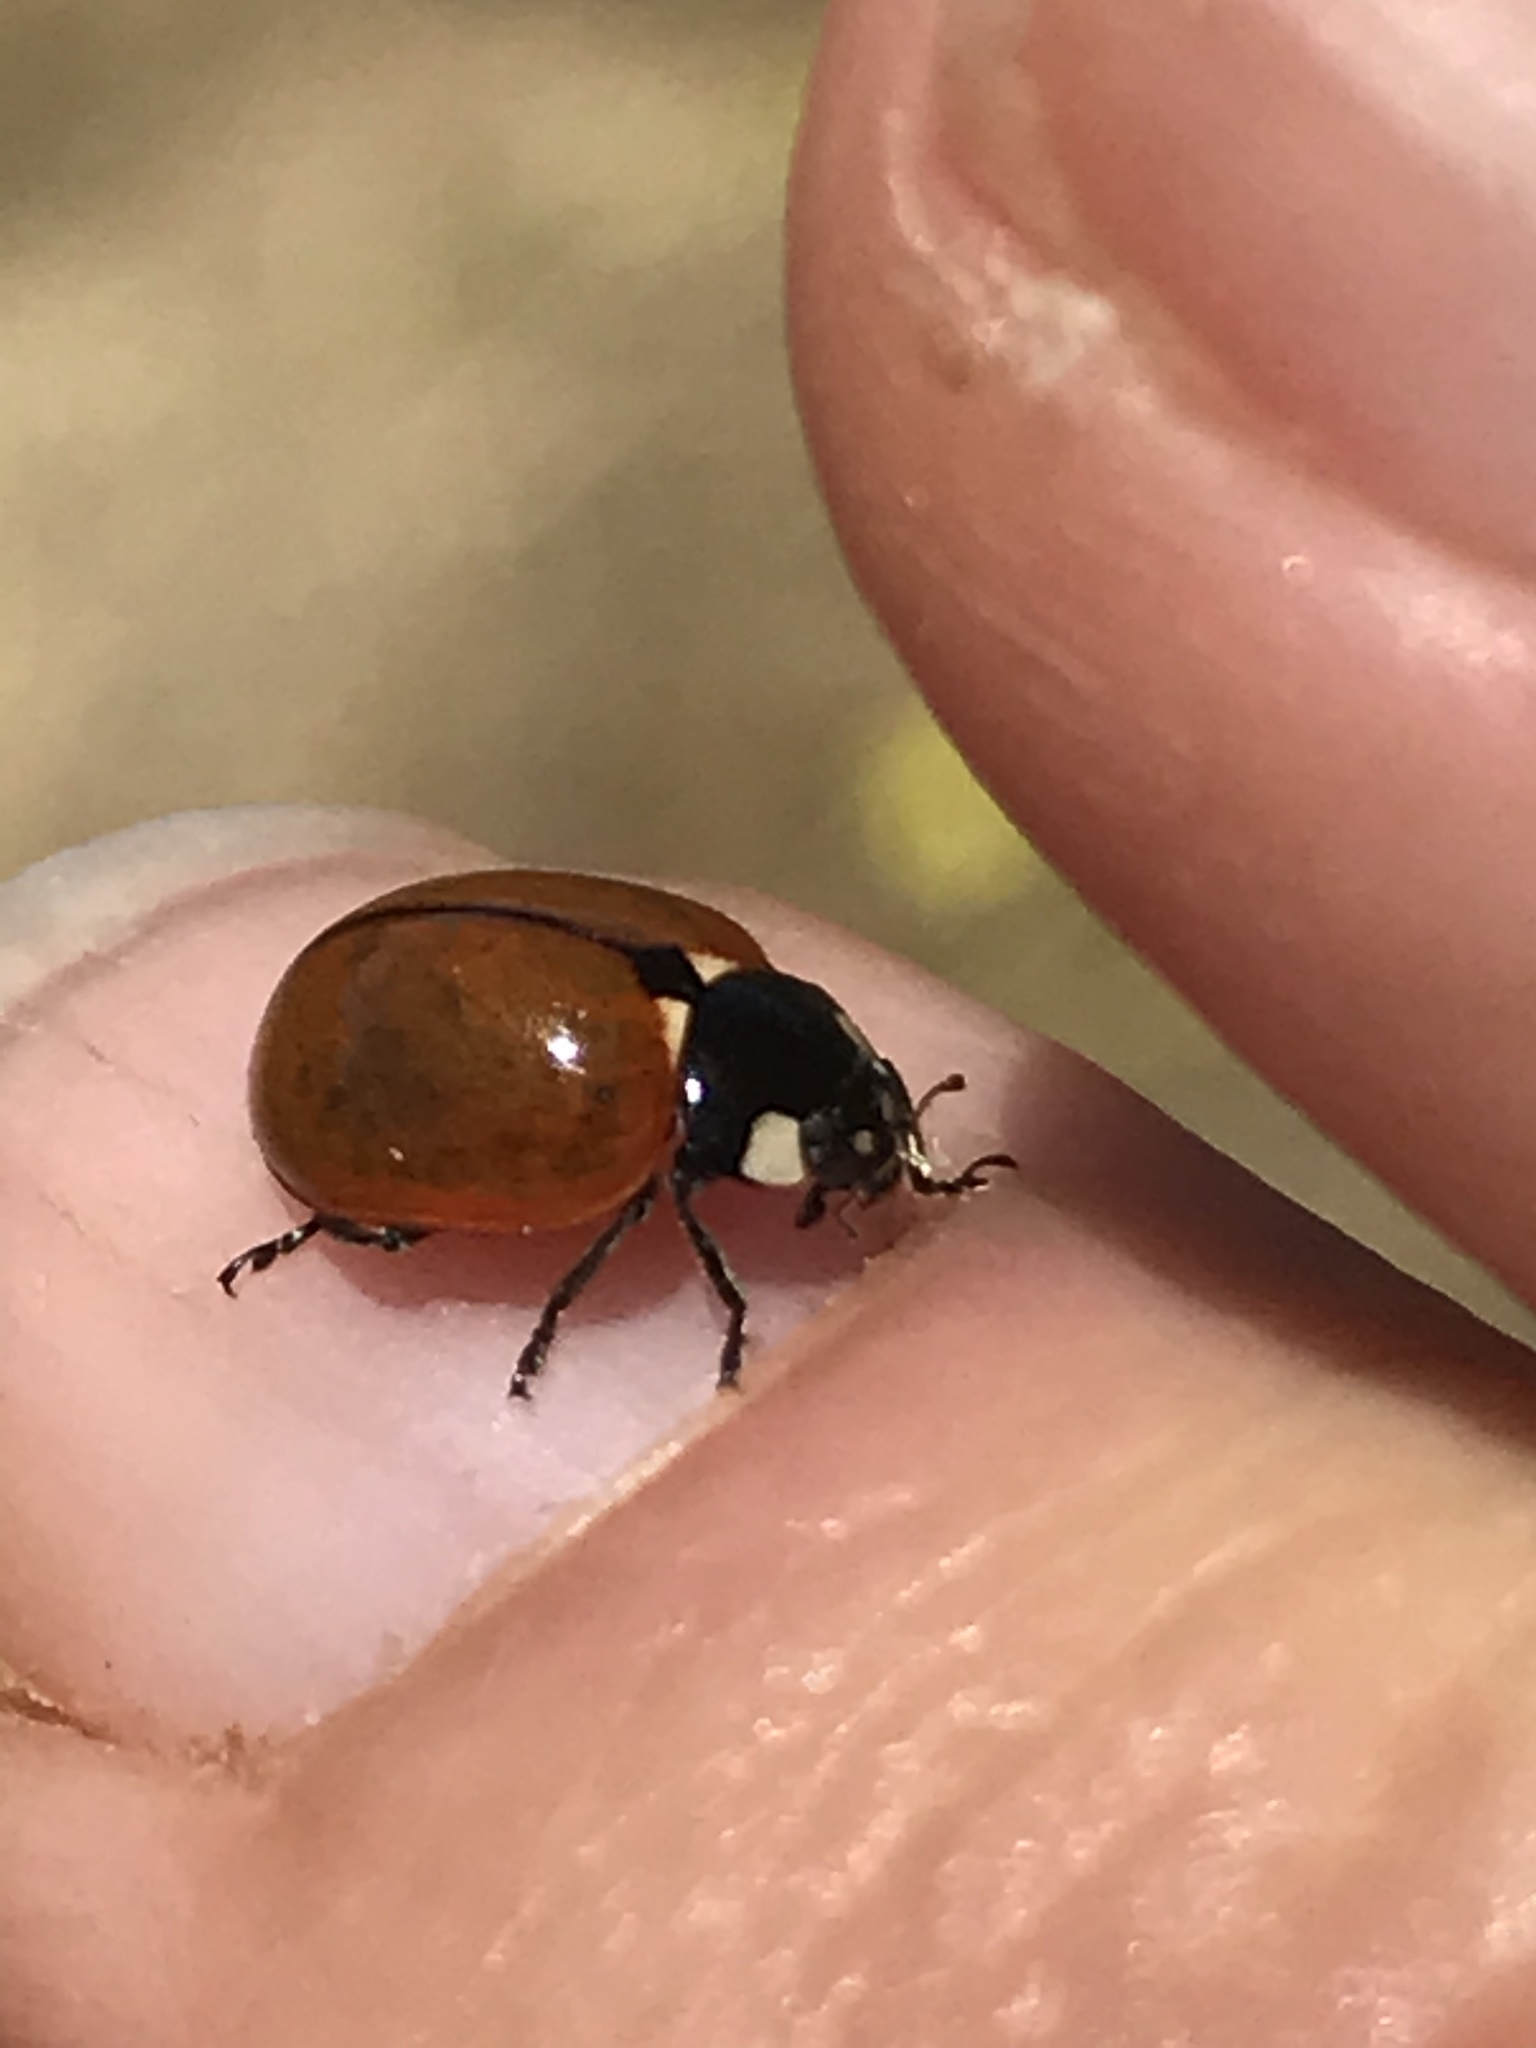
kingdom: Animalia
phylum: Arthropoda
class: Insecta
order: Coleoptera
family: Coccinellidae
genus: Coccinella
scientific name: Coccinella californica
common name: Lady beetle
